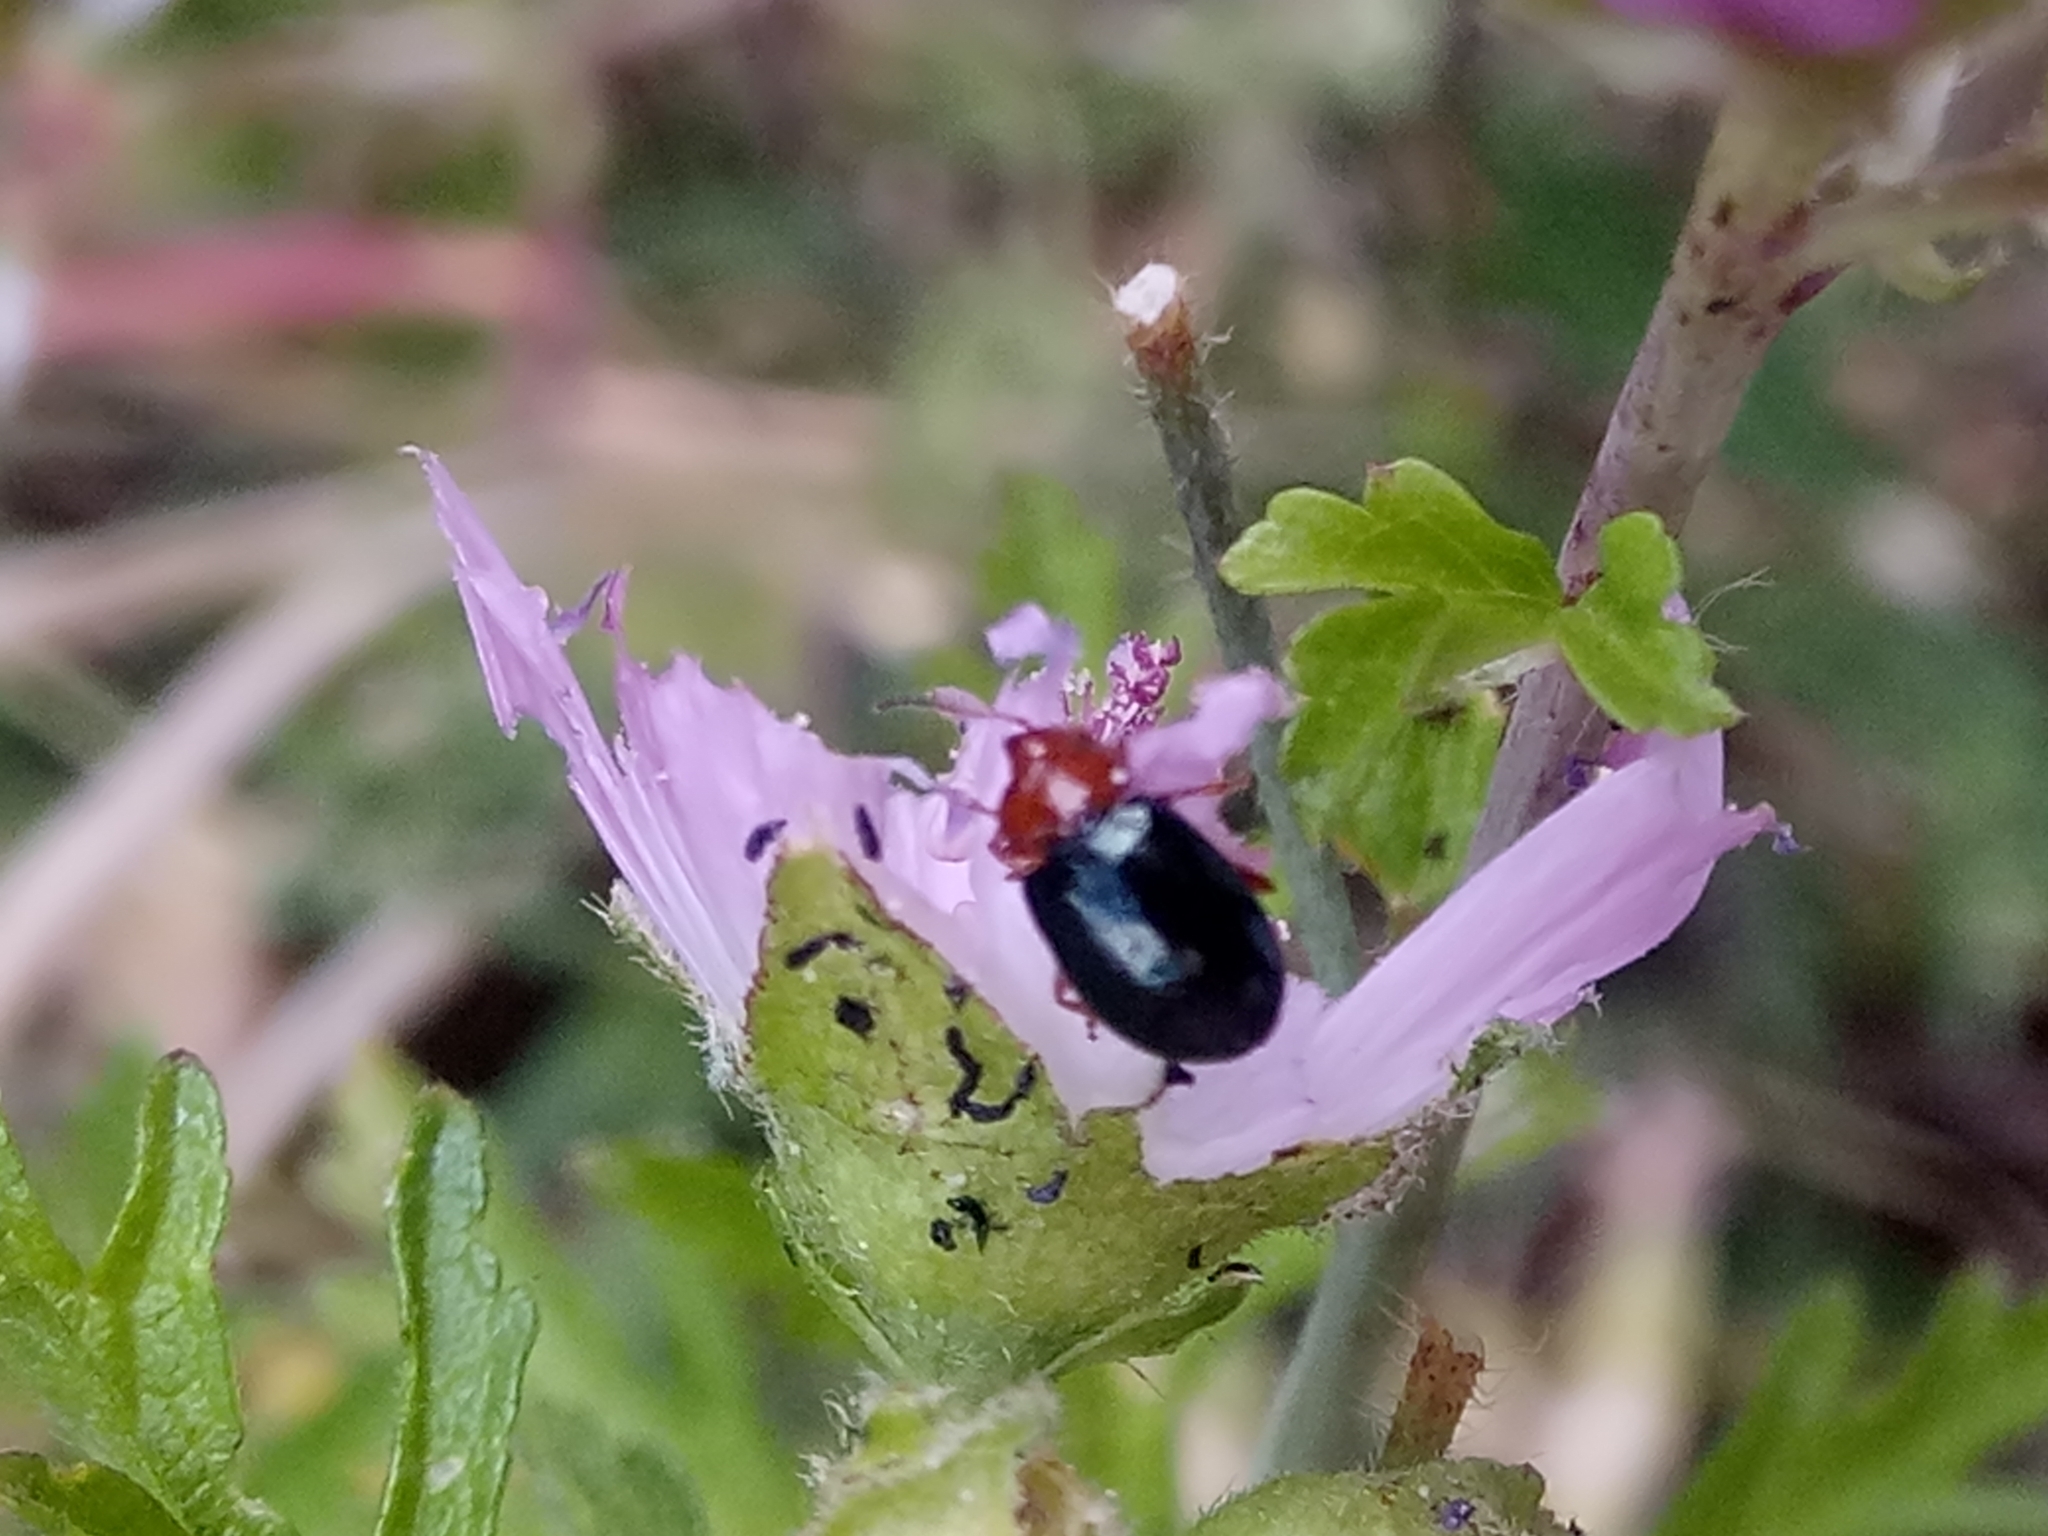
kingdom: Animalia
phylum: Arthropoda
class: Insecta
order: Coleoptera
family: Chrysomelidae
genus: Podagrica
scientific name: Podagrica fuscicornis
